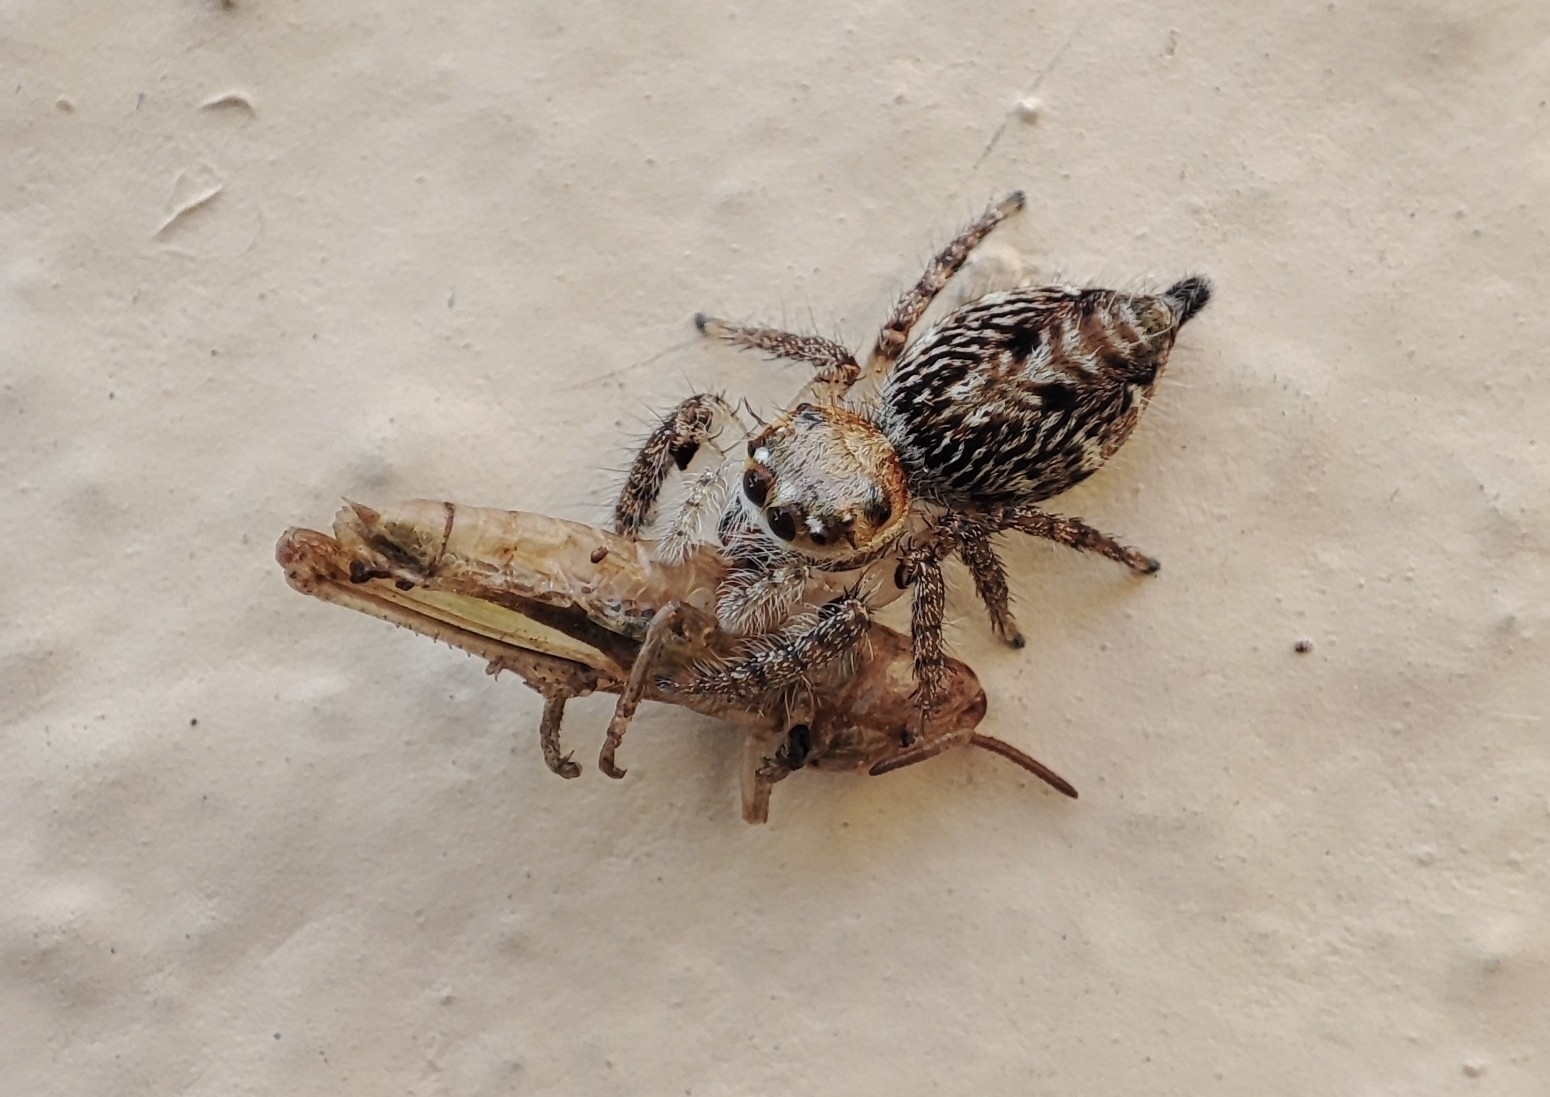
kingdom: Animalia
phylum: Arthropoda
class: Arachnida
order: Araneae
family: Salticidae
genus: Hyllus
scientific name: Hyllus semicupreus
